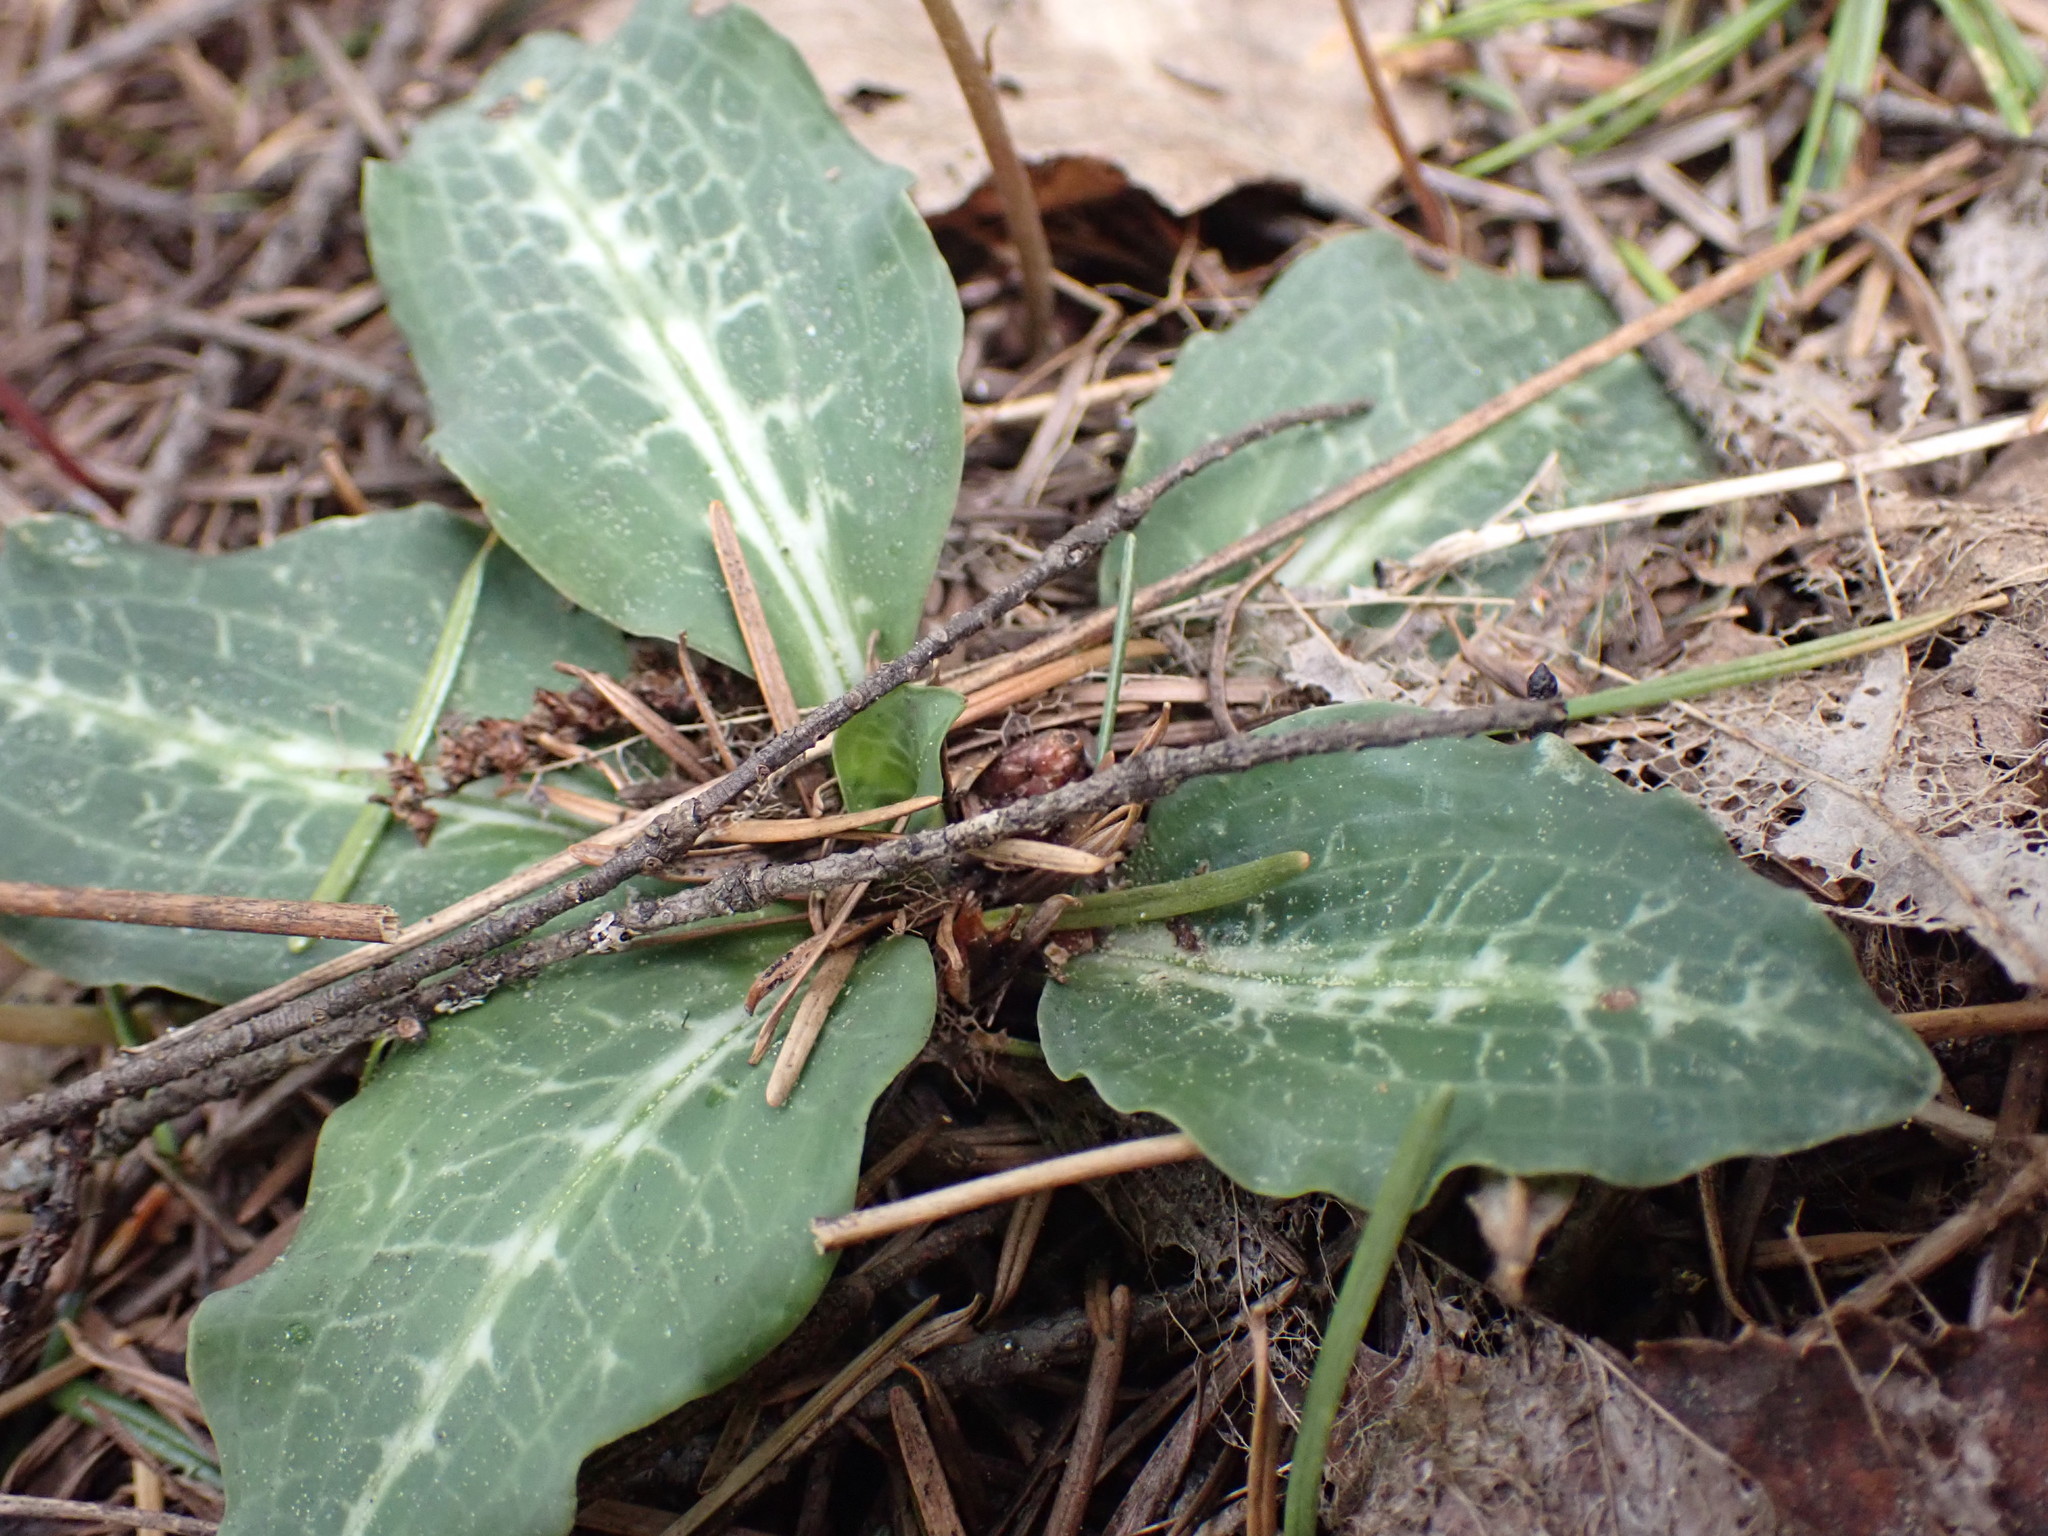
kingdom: Plantae
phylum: Tracheophyta
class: Liliopsida
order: Asparagales
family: Orchidaceae
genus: Goodyera
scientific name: Goodyera oblongifolia
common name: Giant rattlesnake-plantain
